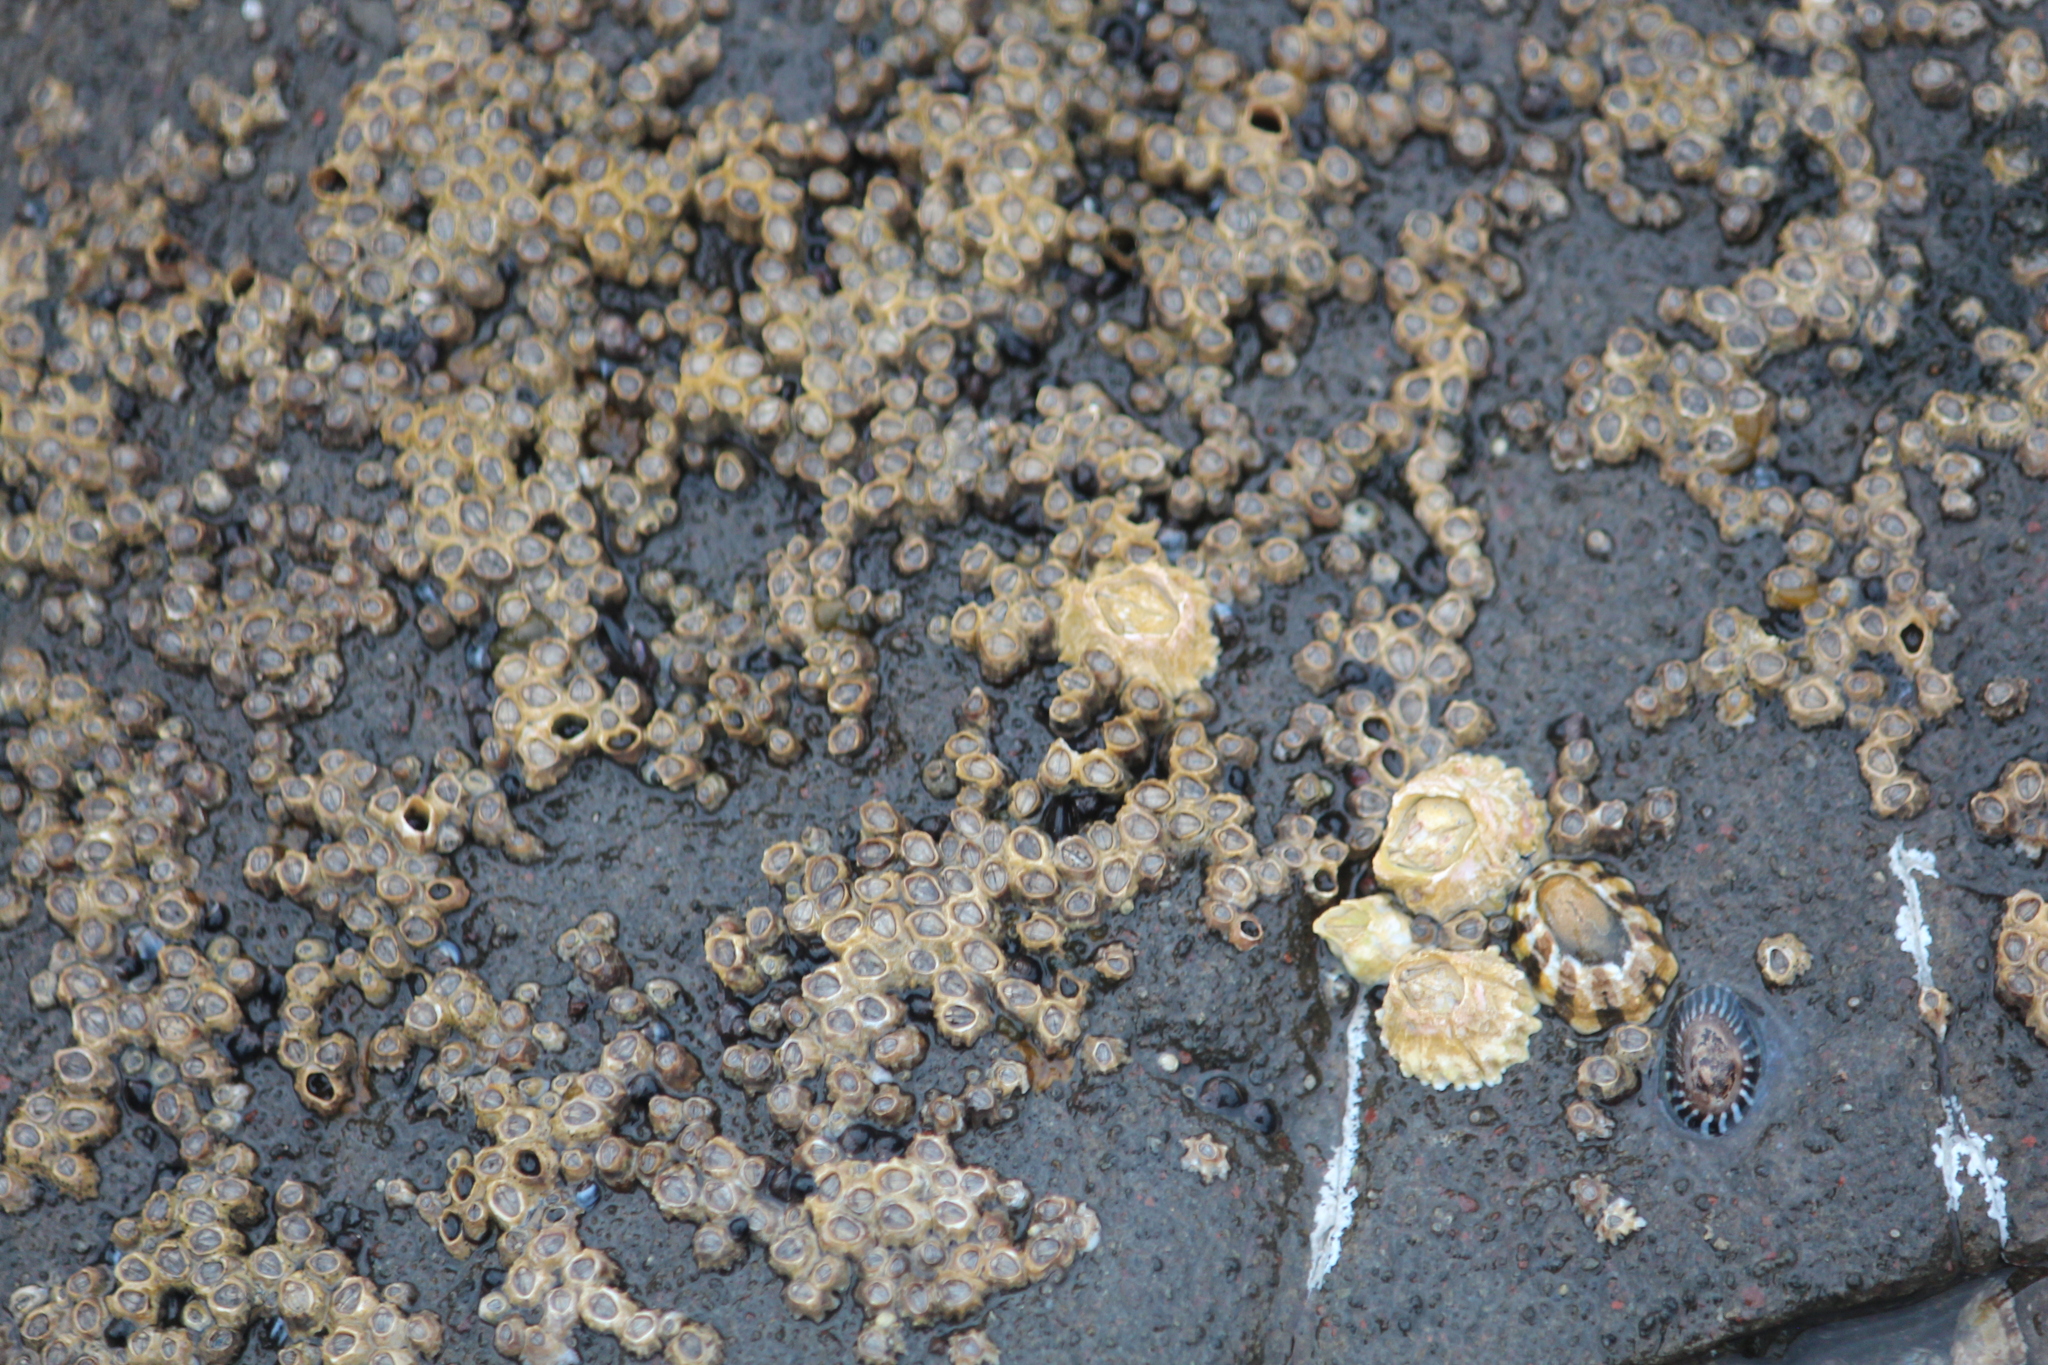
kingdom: Animalia
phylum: Mollusca
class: Gastropoda
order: Siphonariida
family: Siphonariidae
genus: Benhamina
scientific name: Benhamina obliquata
